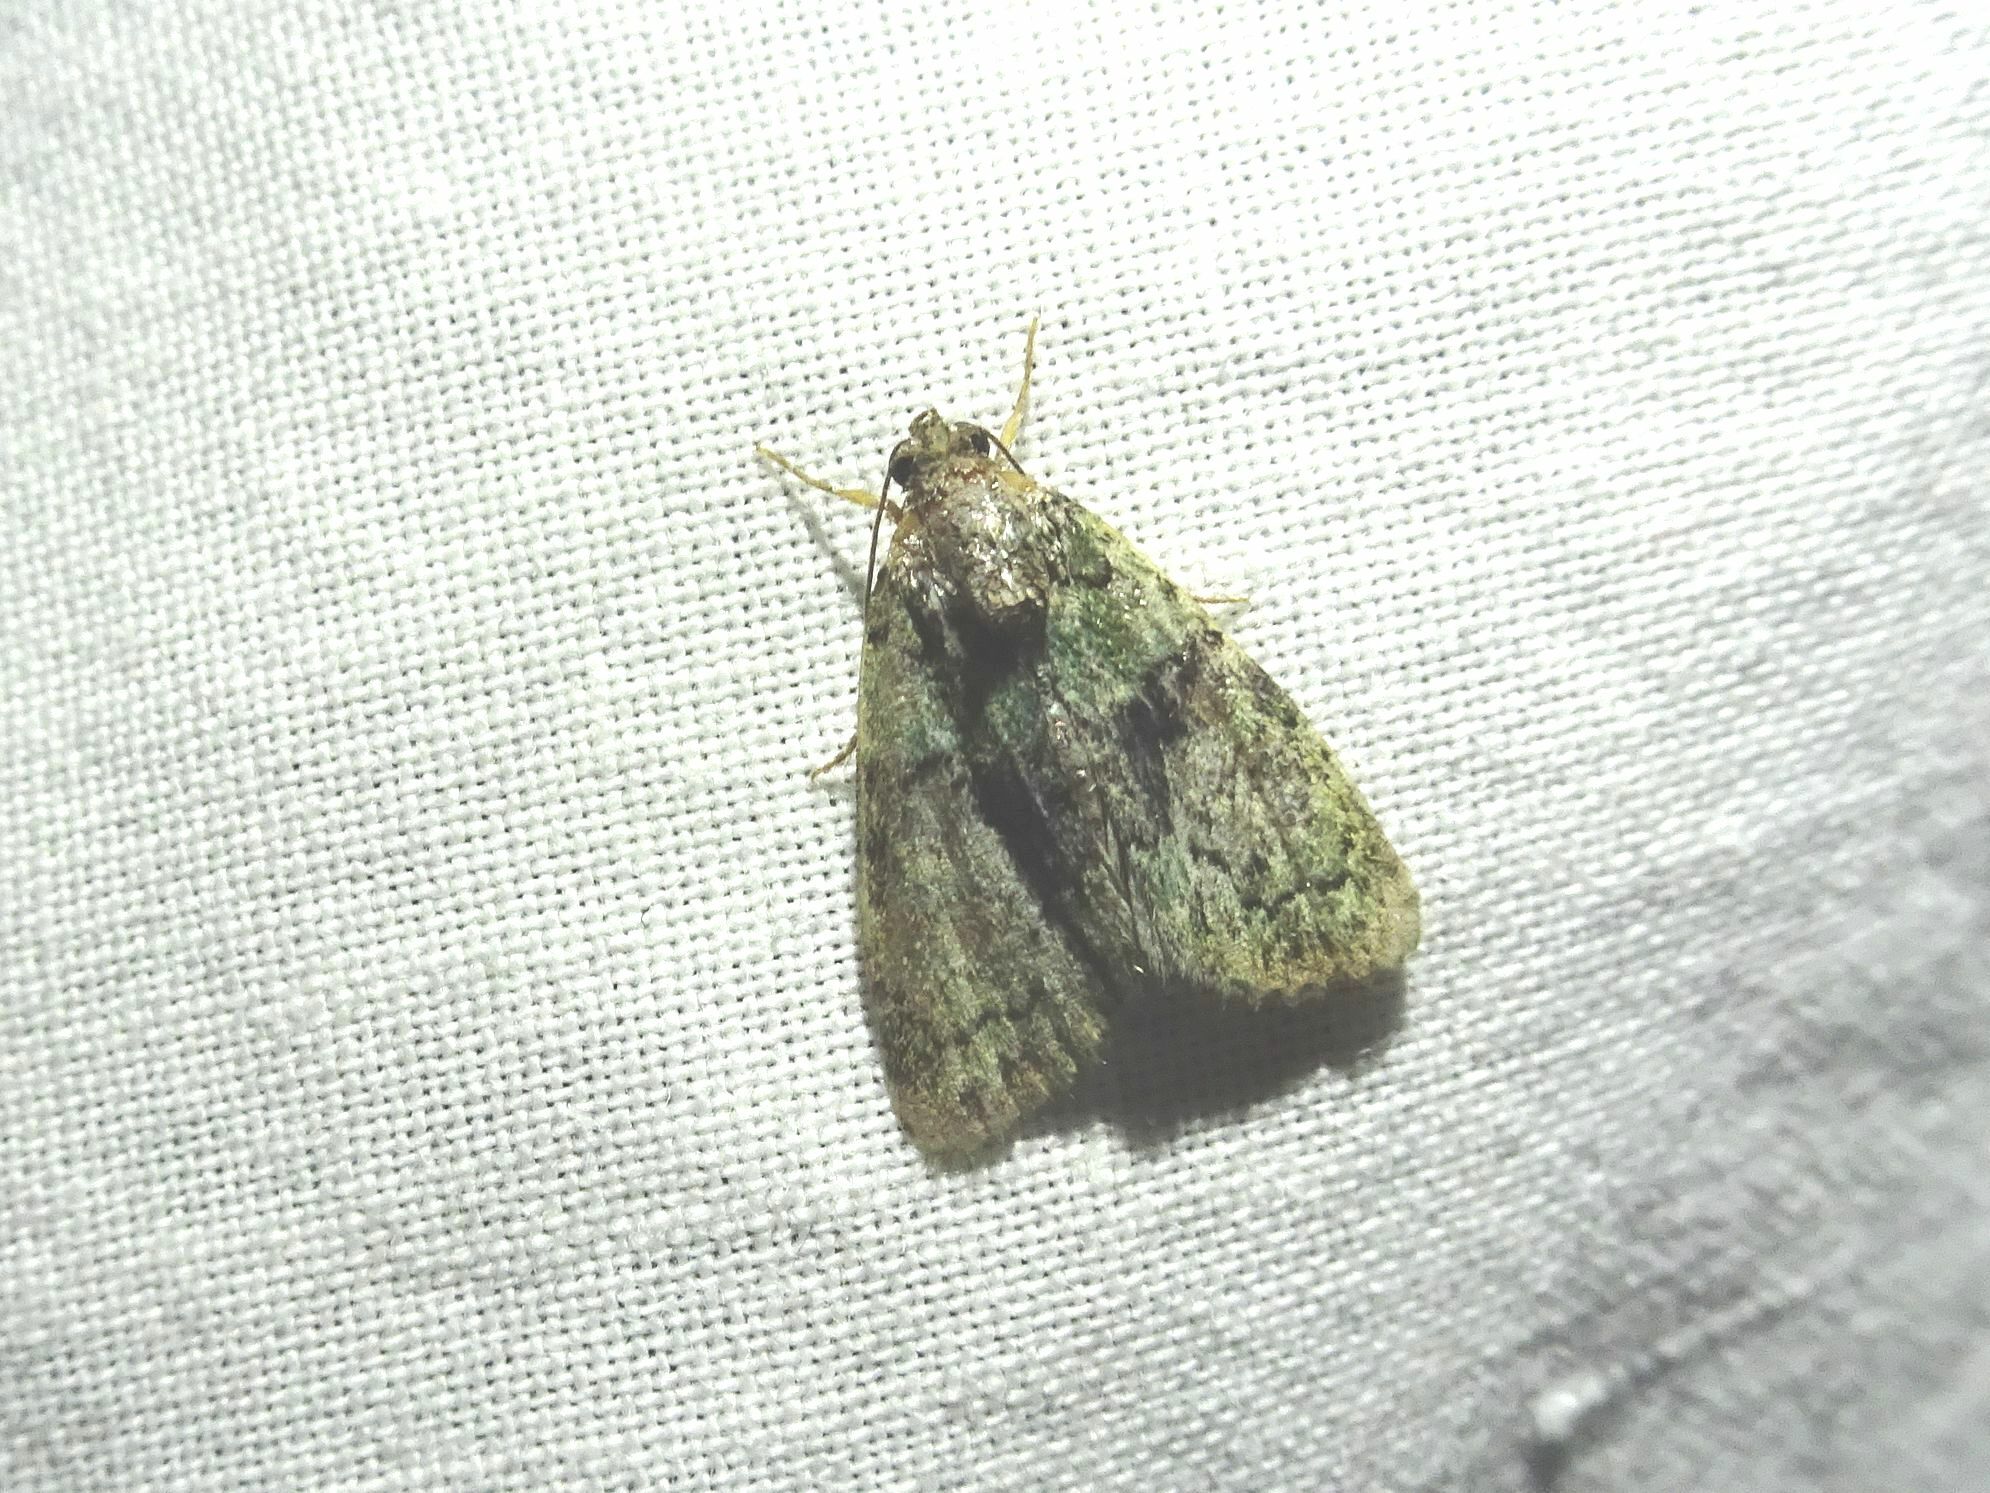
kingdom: Animalia
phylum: Arthropoda
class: Insecta
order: Lepidoptera
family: Noctuidae
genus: Cryphia
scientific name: Cryphia algae
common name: Tree-lichen beauty
